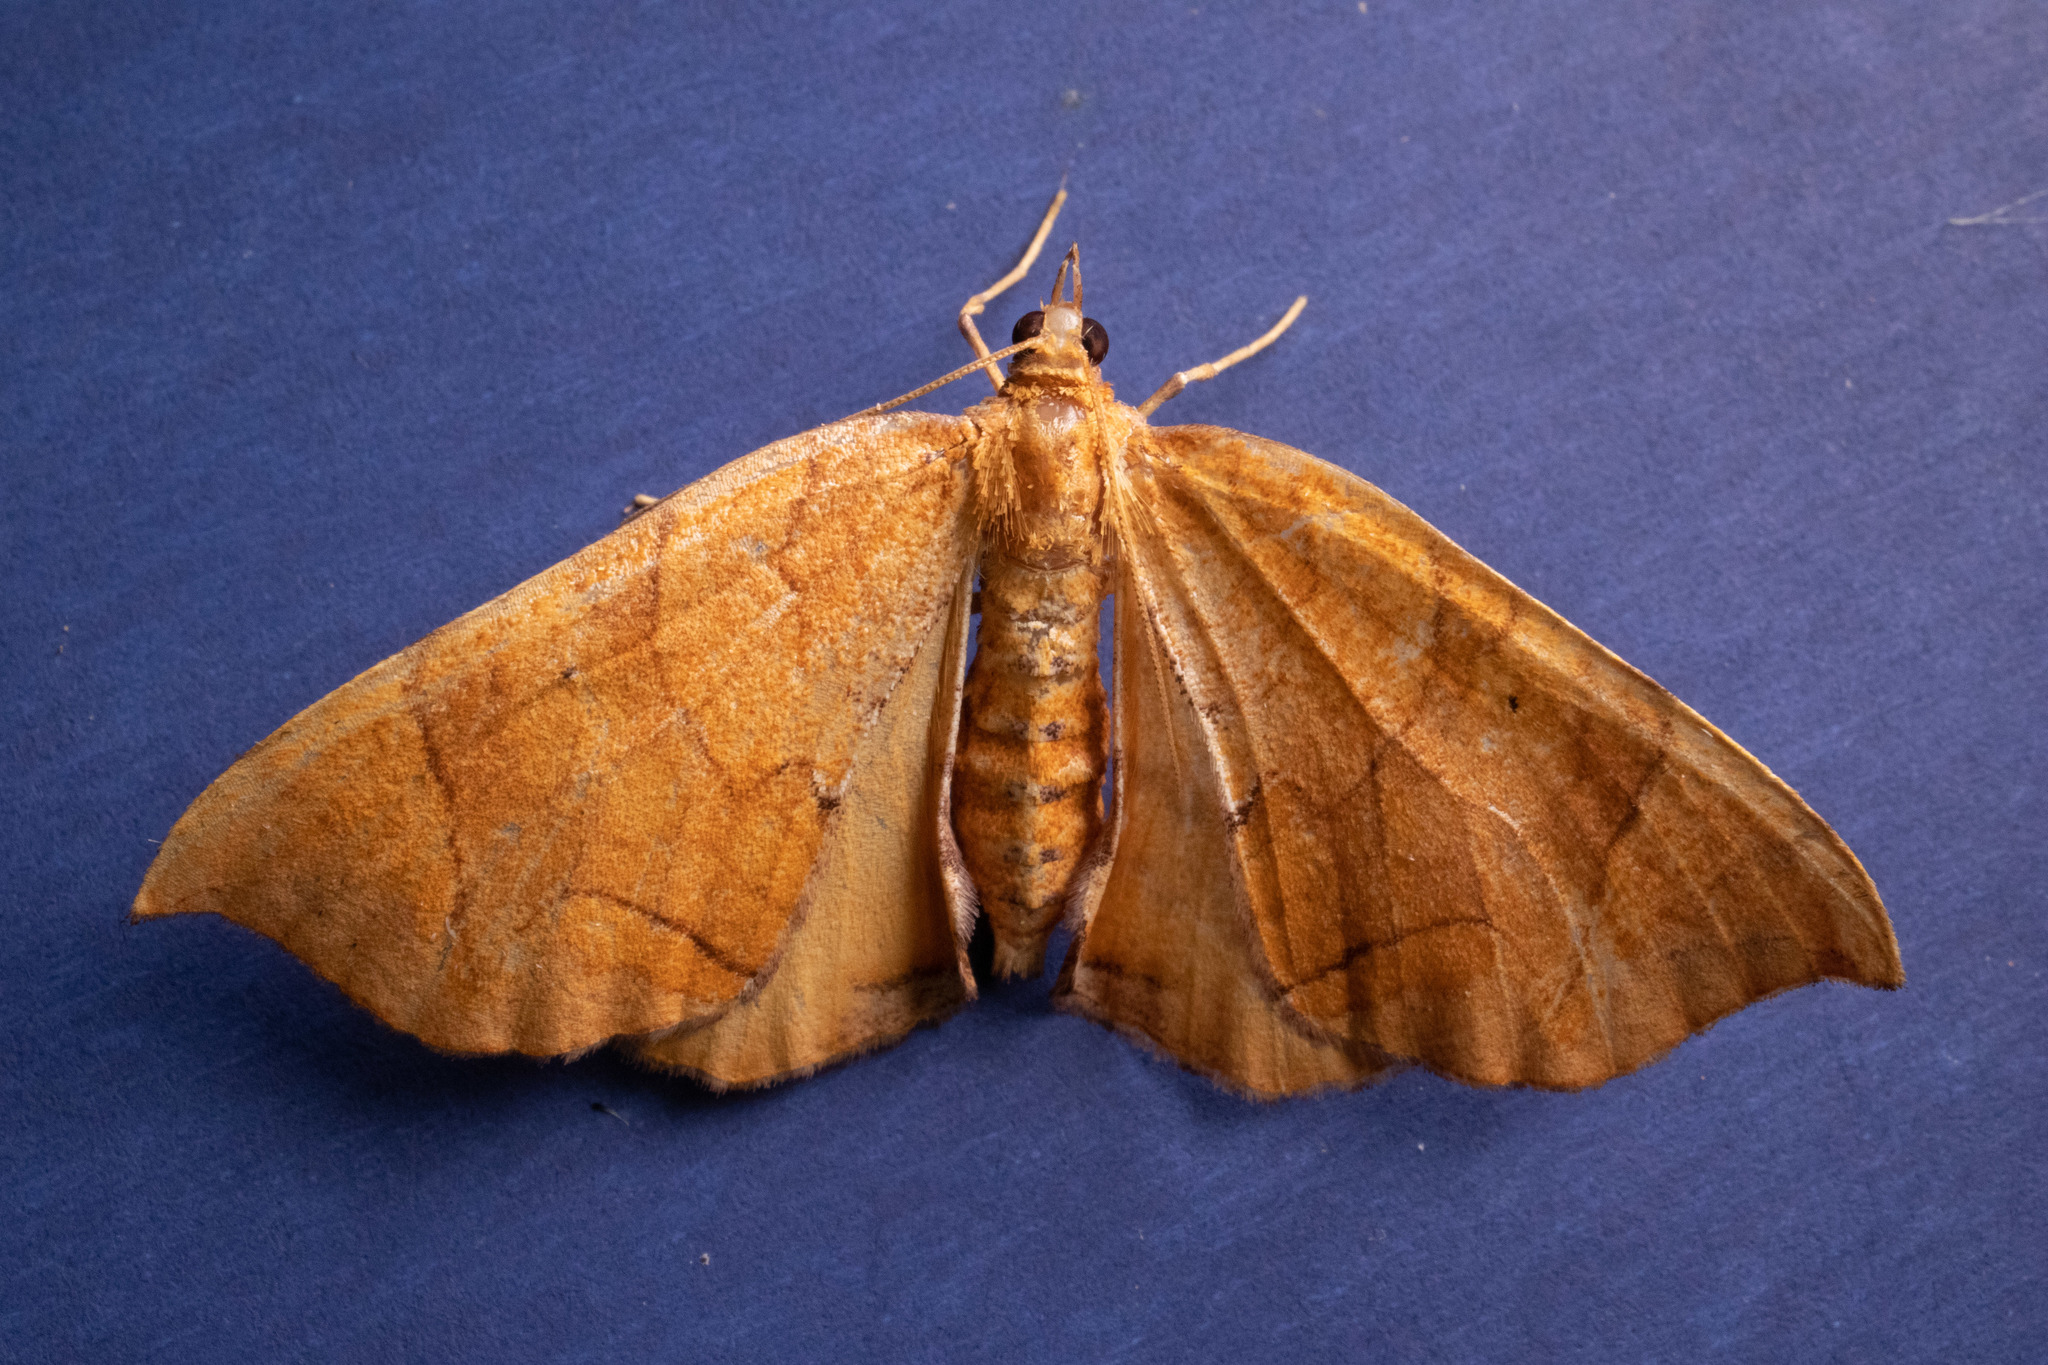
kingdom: Animalia
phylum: Arthropoda
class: Insecta
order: Lepidoptera
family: Geometridae
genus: Eulithis
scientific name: Eulithis
